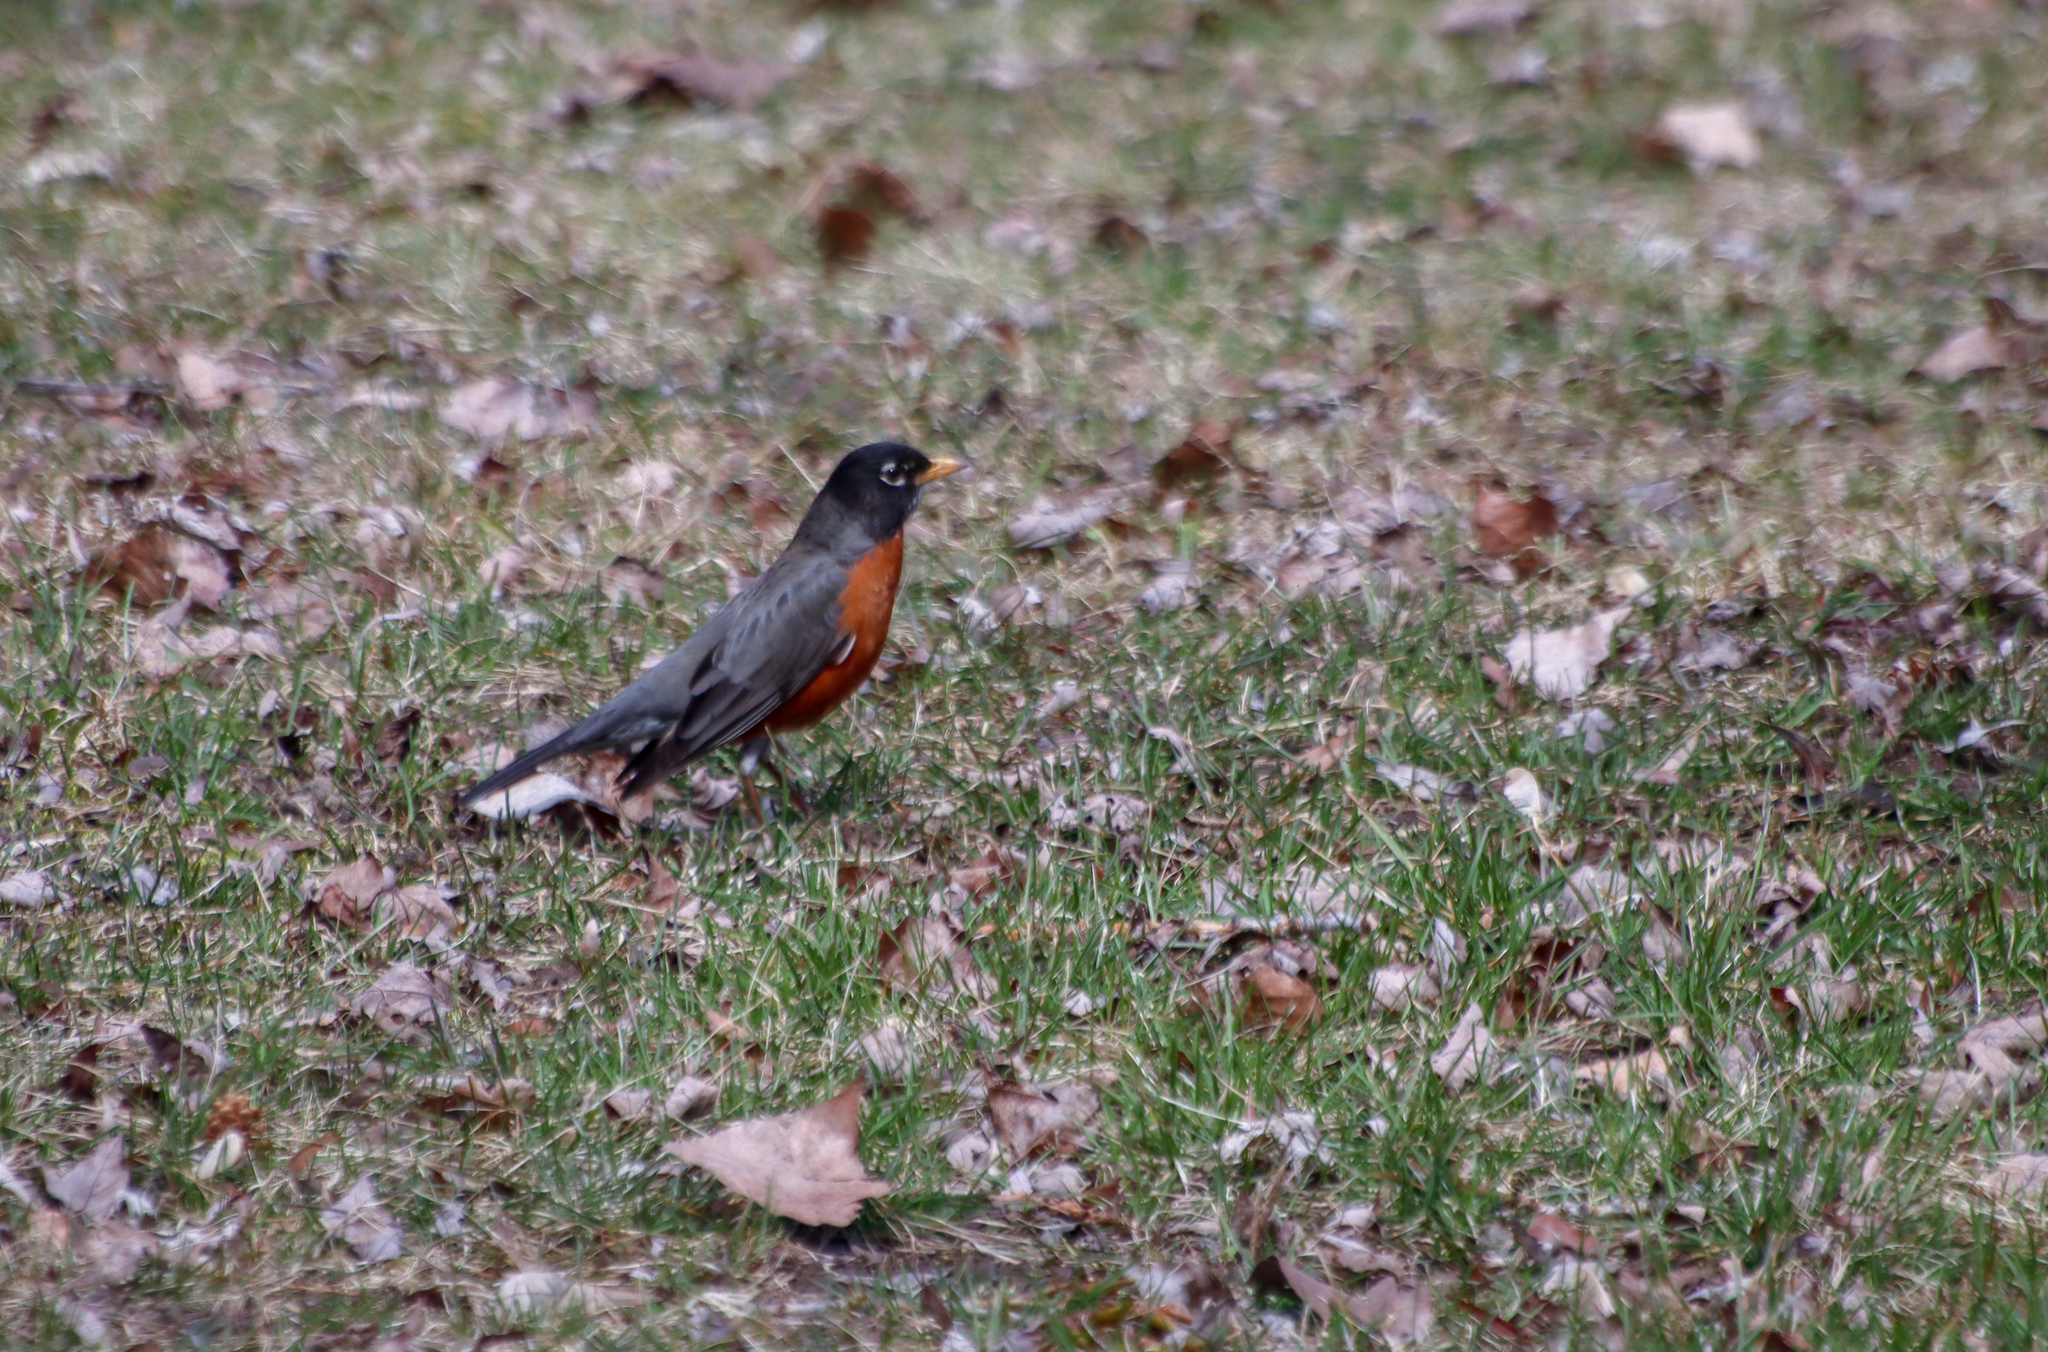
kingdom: Animalia
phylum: Chordata
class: Aves
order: Passeriformes
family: Turdidae
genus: Turdus
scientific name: Turdus migratorius
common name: American robin
